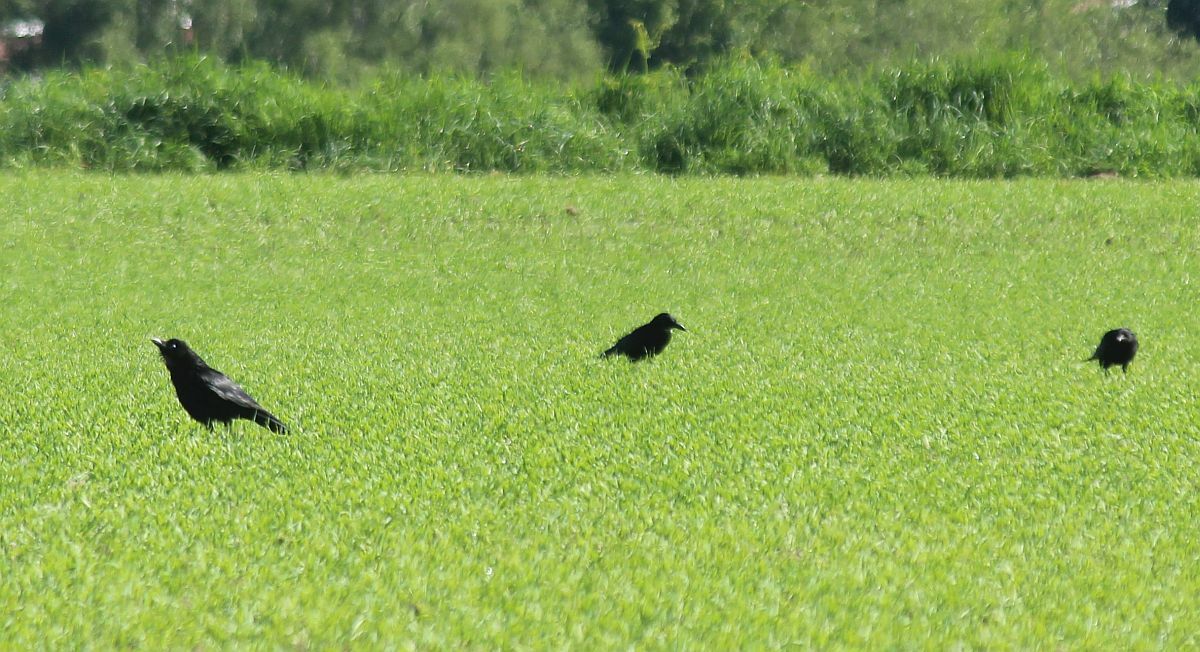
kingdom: Animalia
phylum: Chordata
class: Aves
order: Passeriformes
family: Corvidae
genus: Corvus
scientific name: Corvus corone
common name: Carrion crow
